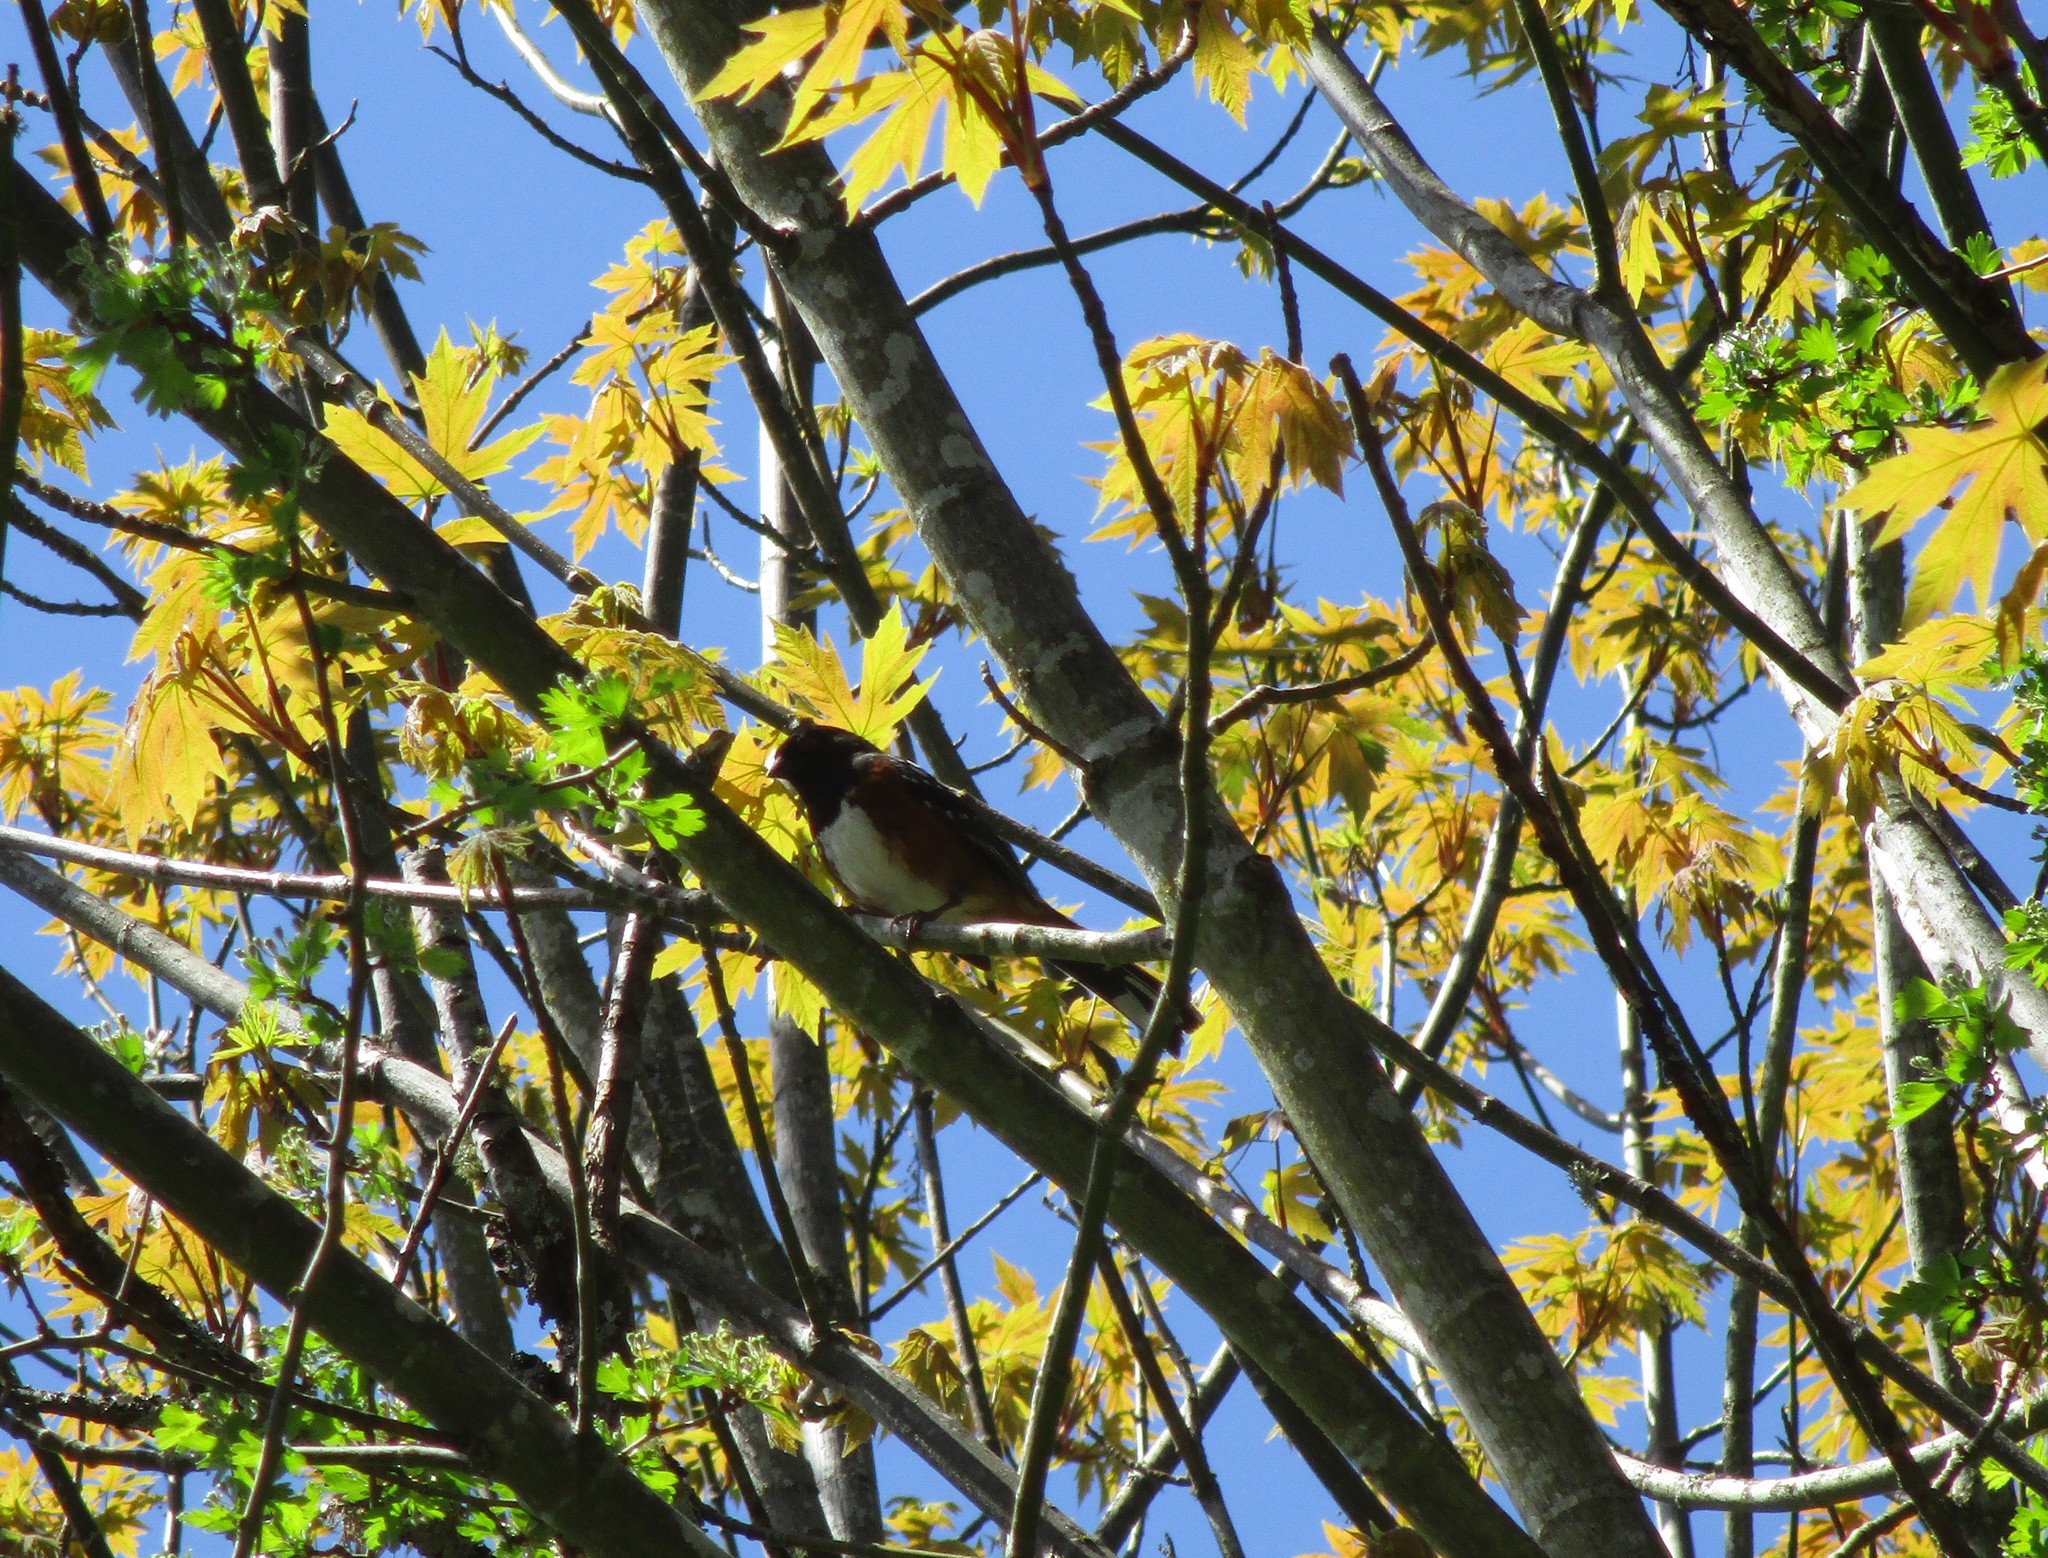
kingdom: Animalia
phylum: Chordata
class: Aves
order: Passeriformes
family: Passerellidae
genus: Pipilo
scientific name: Pipilo maculatus
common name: Spotted towhee
